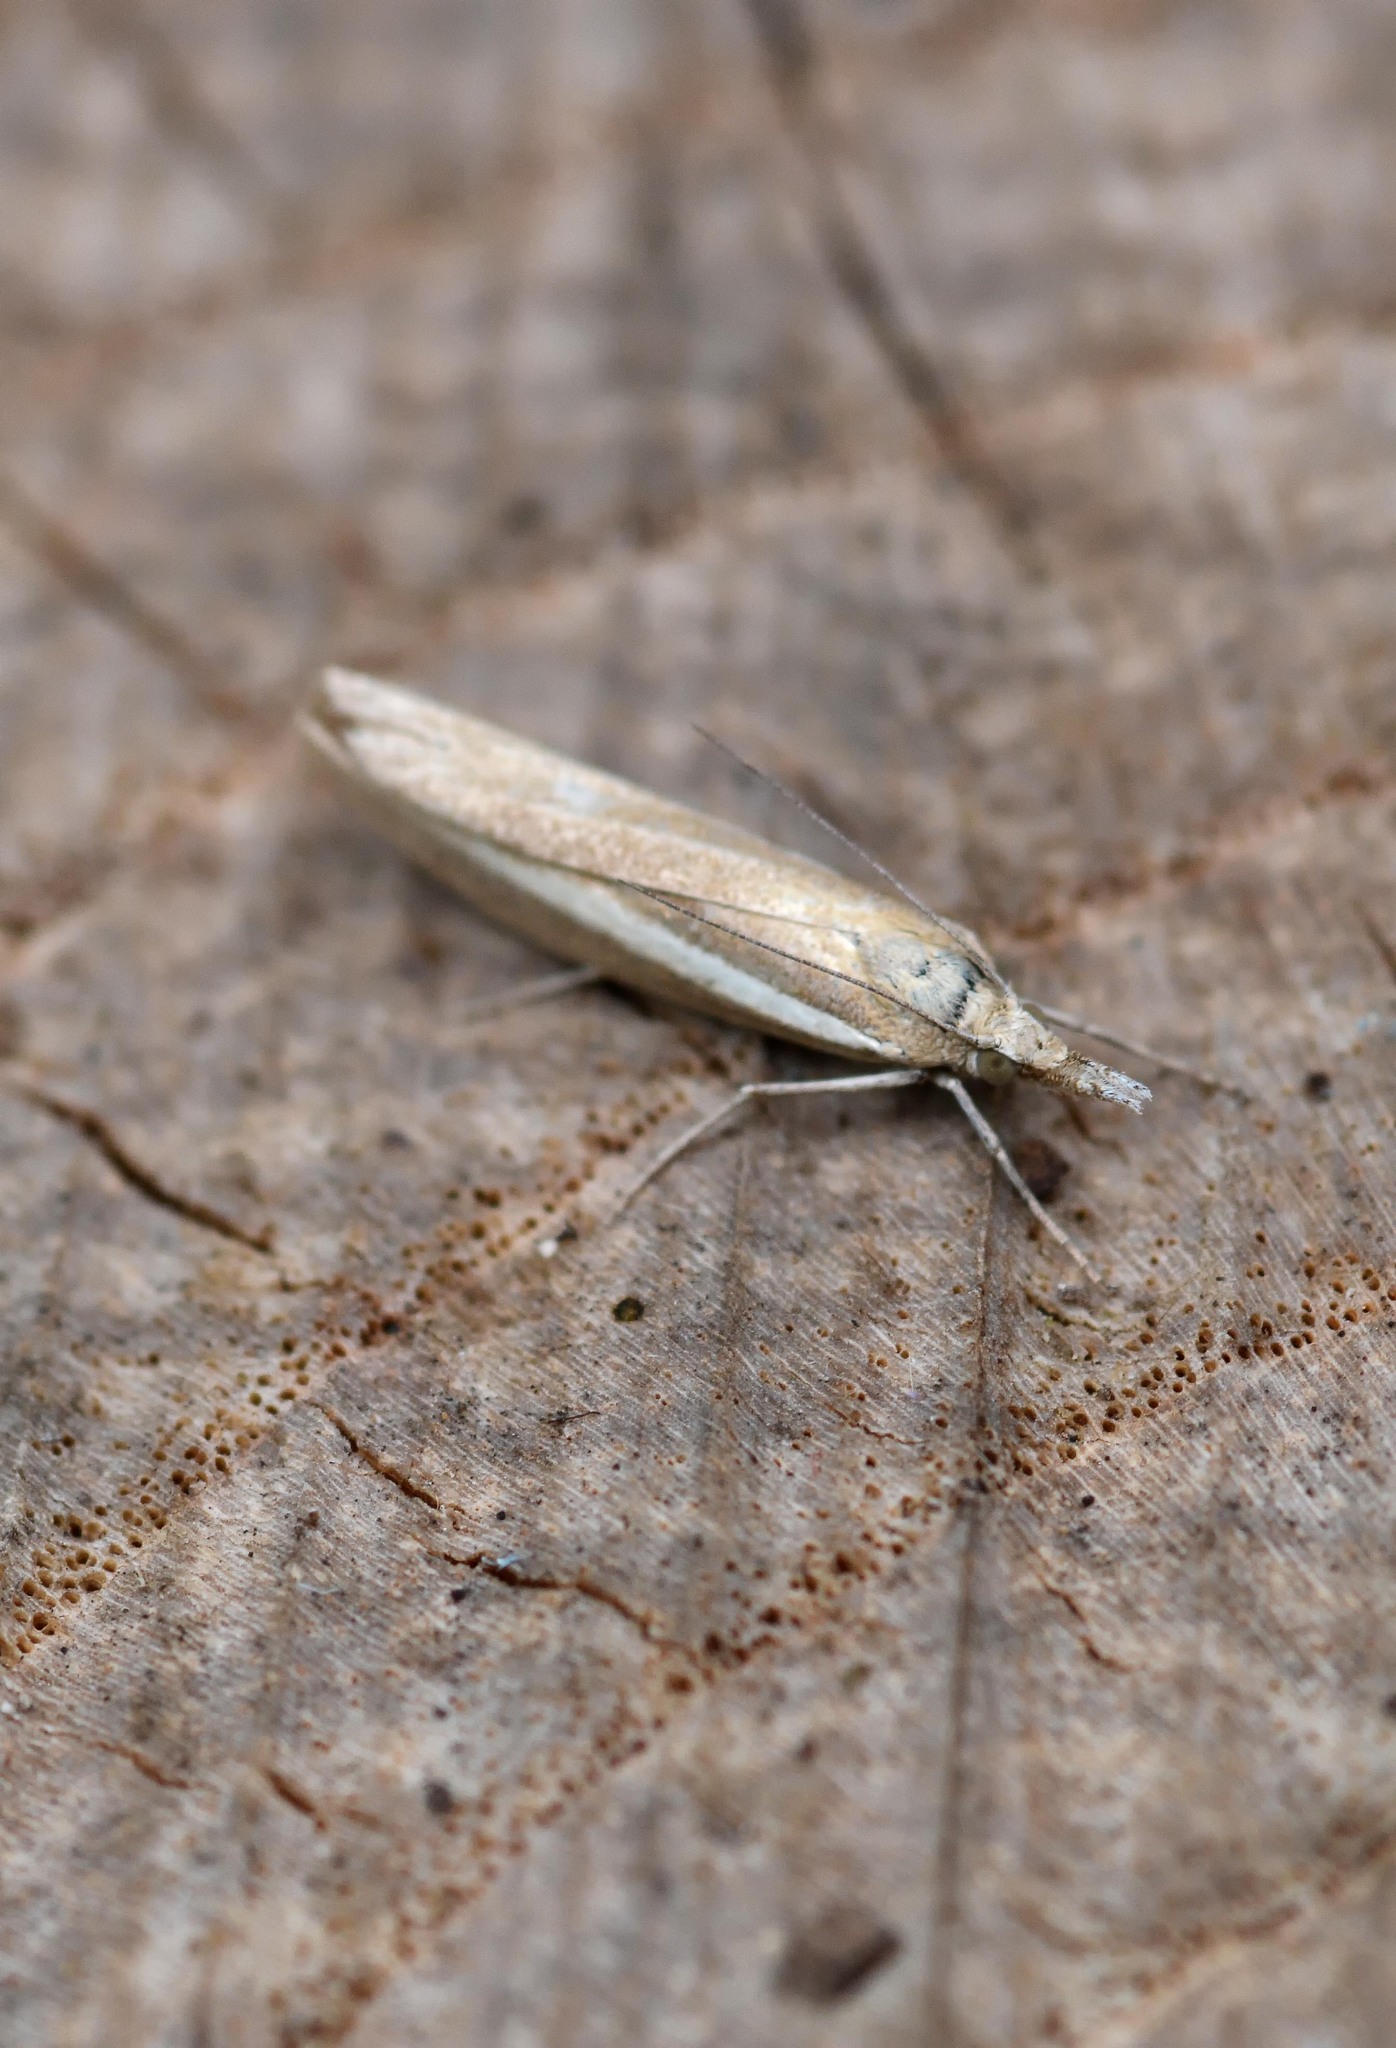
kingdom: Animalia
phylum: Arthropoda
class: Insecta
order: Lepidoptera
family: Crambidae
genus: Agriphila
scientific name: Agriphila selasella
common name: Pale-streak grass-veneer
